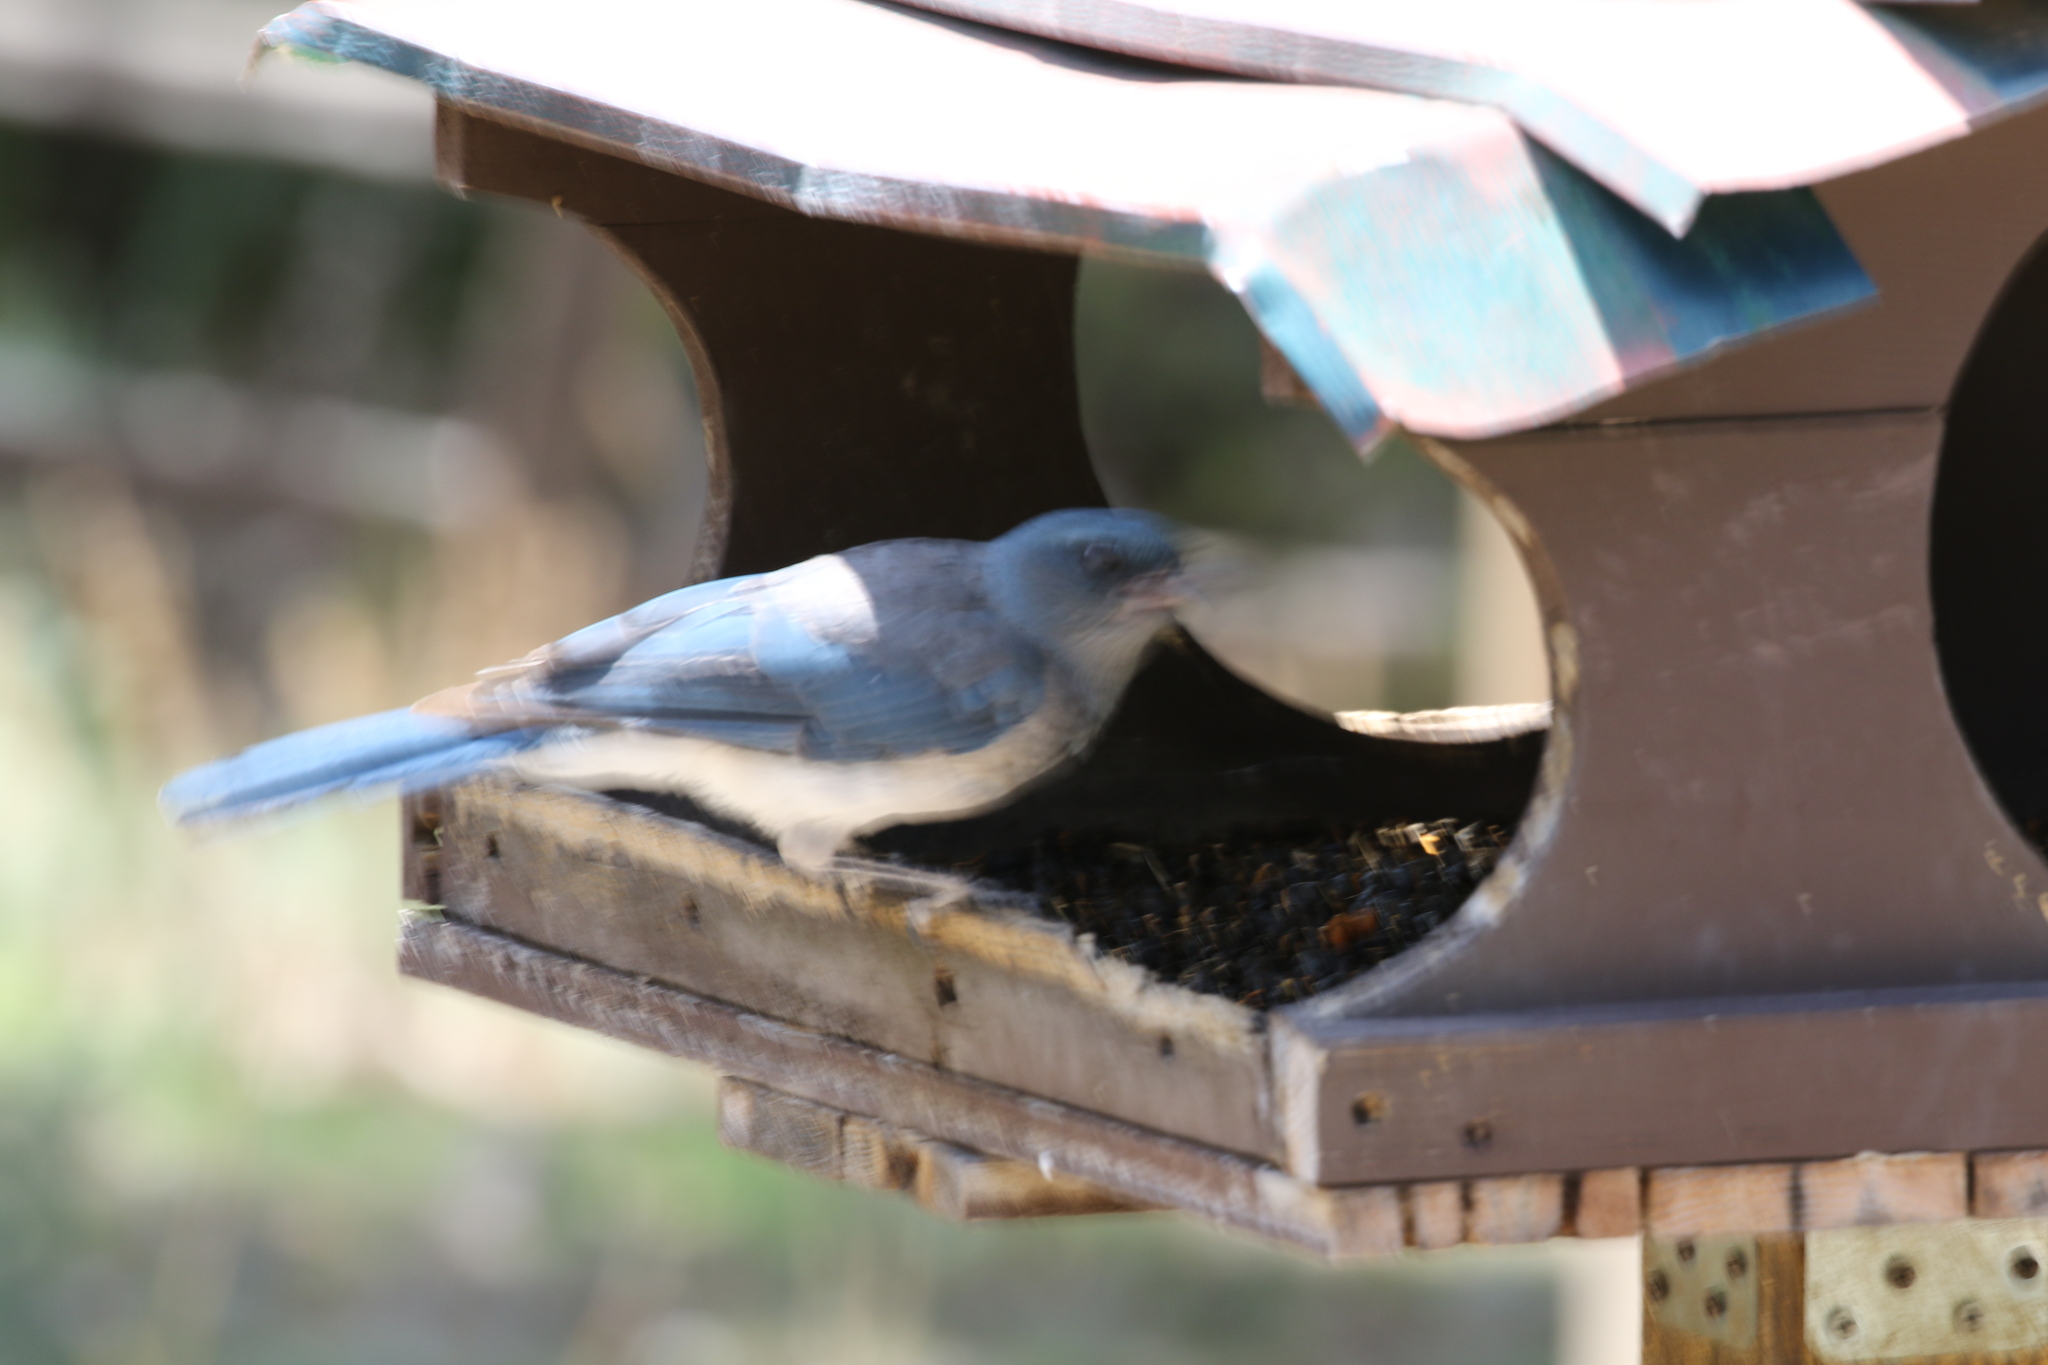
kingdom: Animalia
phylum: Chordata
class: Aves
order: Passeriformes
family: Corvidae
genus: Aphelocoma
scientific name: Aphelocoma wollweberi
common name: Mexican jay
